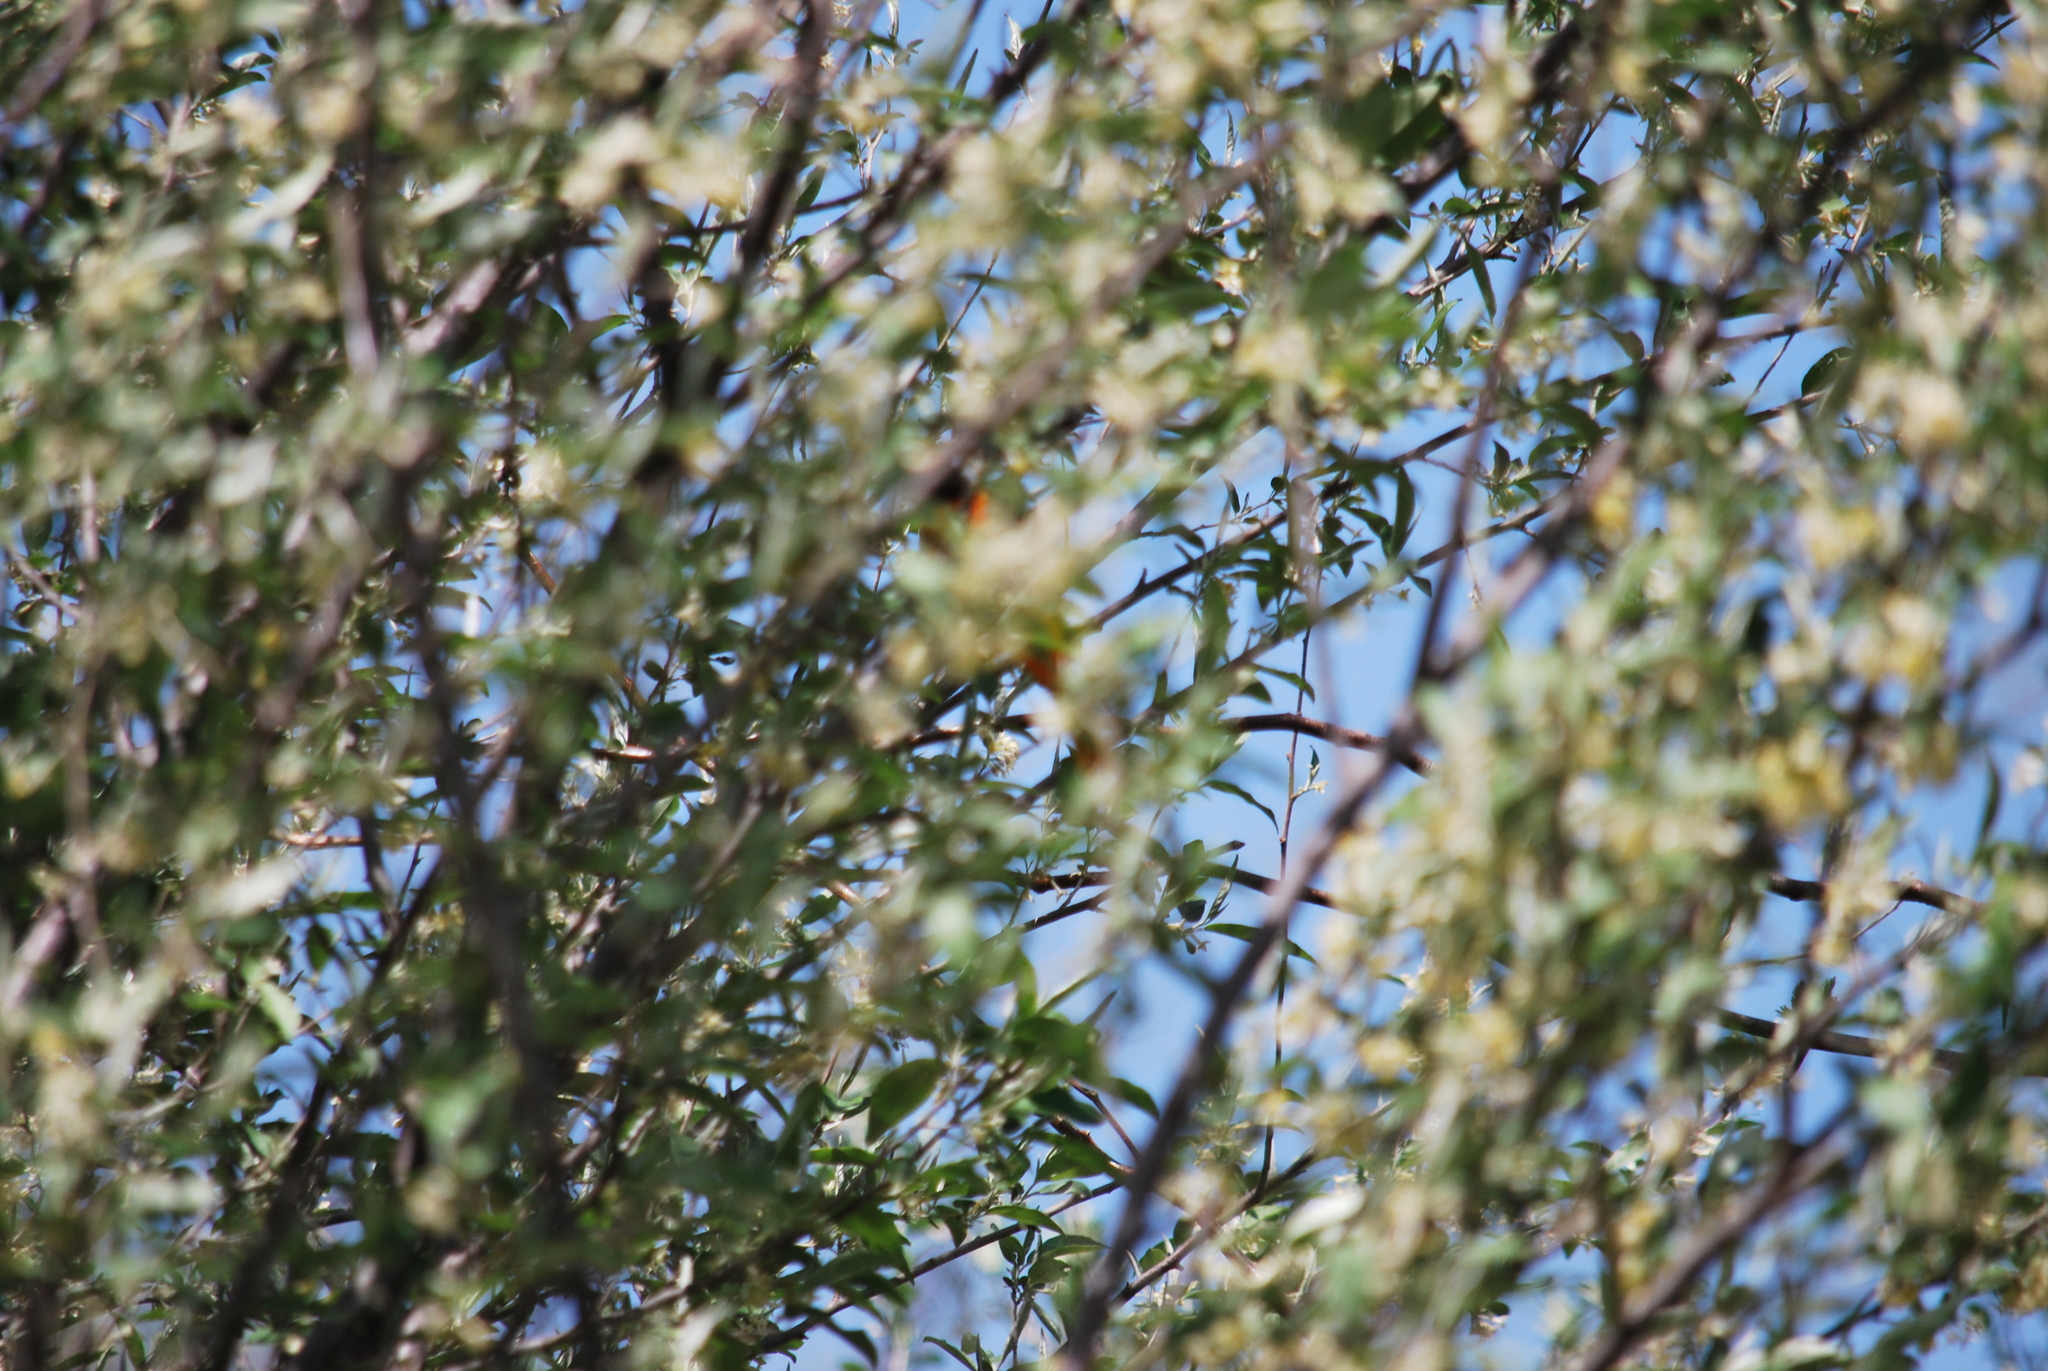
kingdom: Animalia
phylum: Chordata
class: Aves
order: Passeriformes
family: Icteridae
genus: Icterus
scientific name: Icterus galbula
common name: Baltimore oriole
